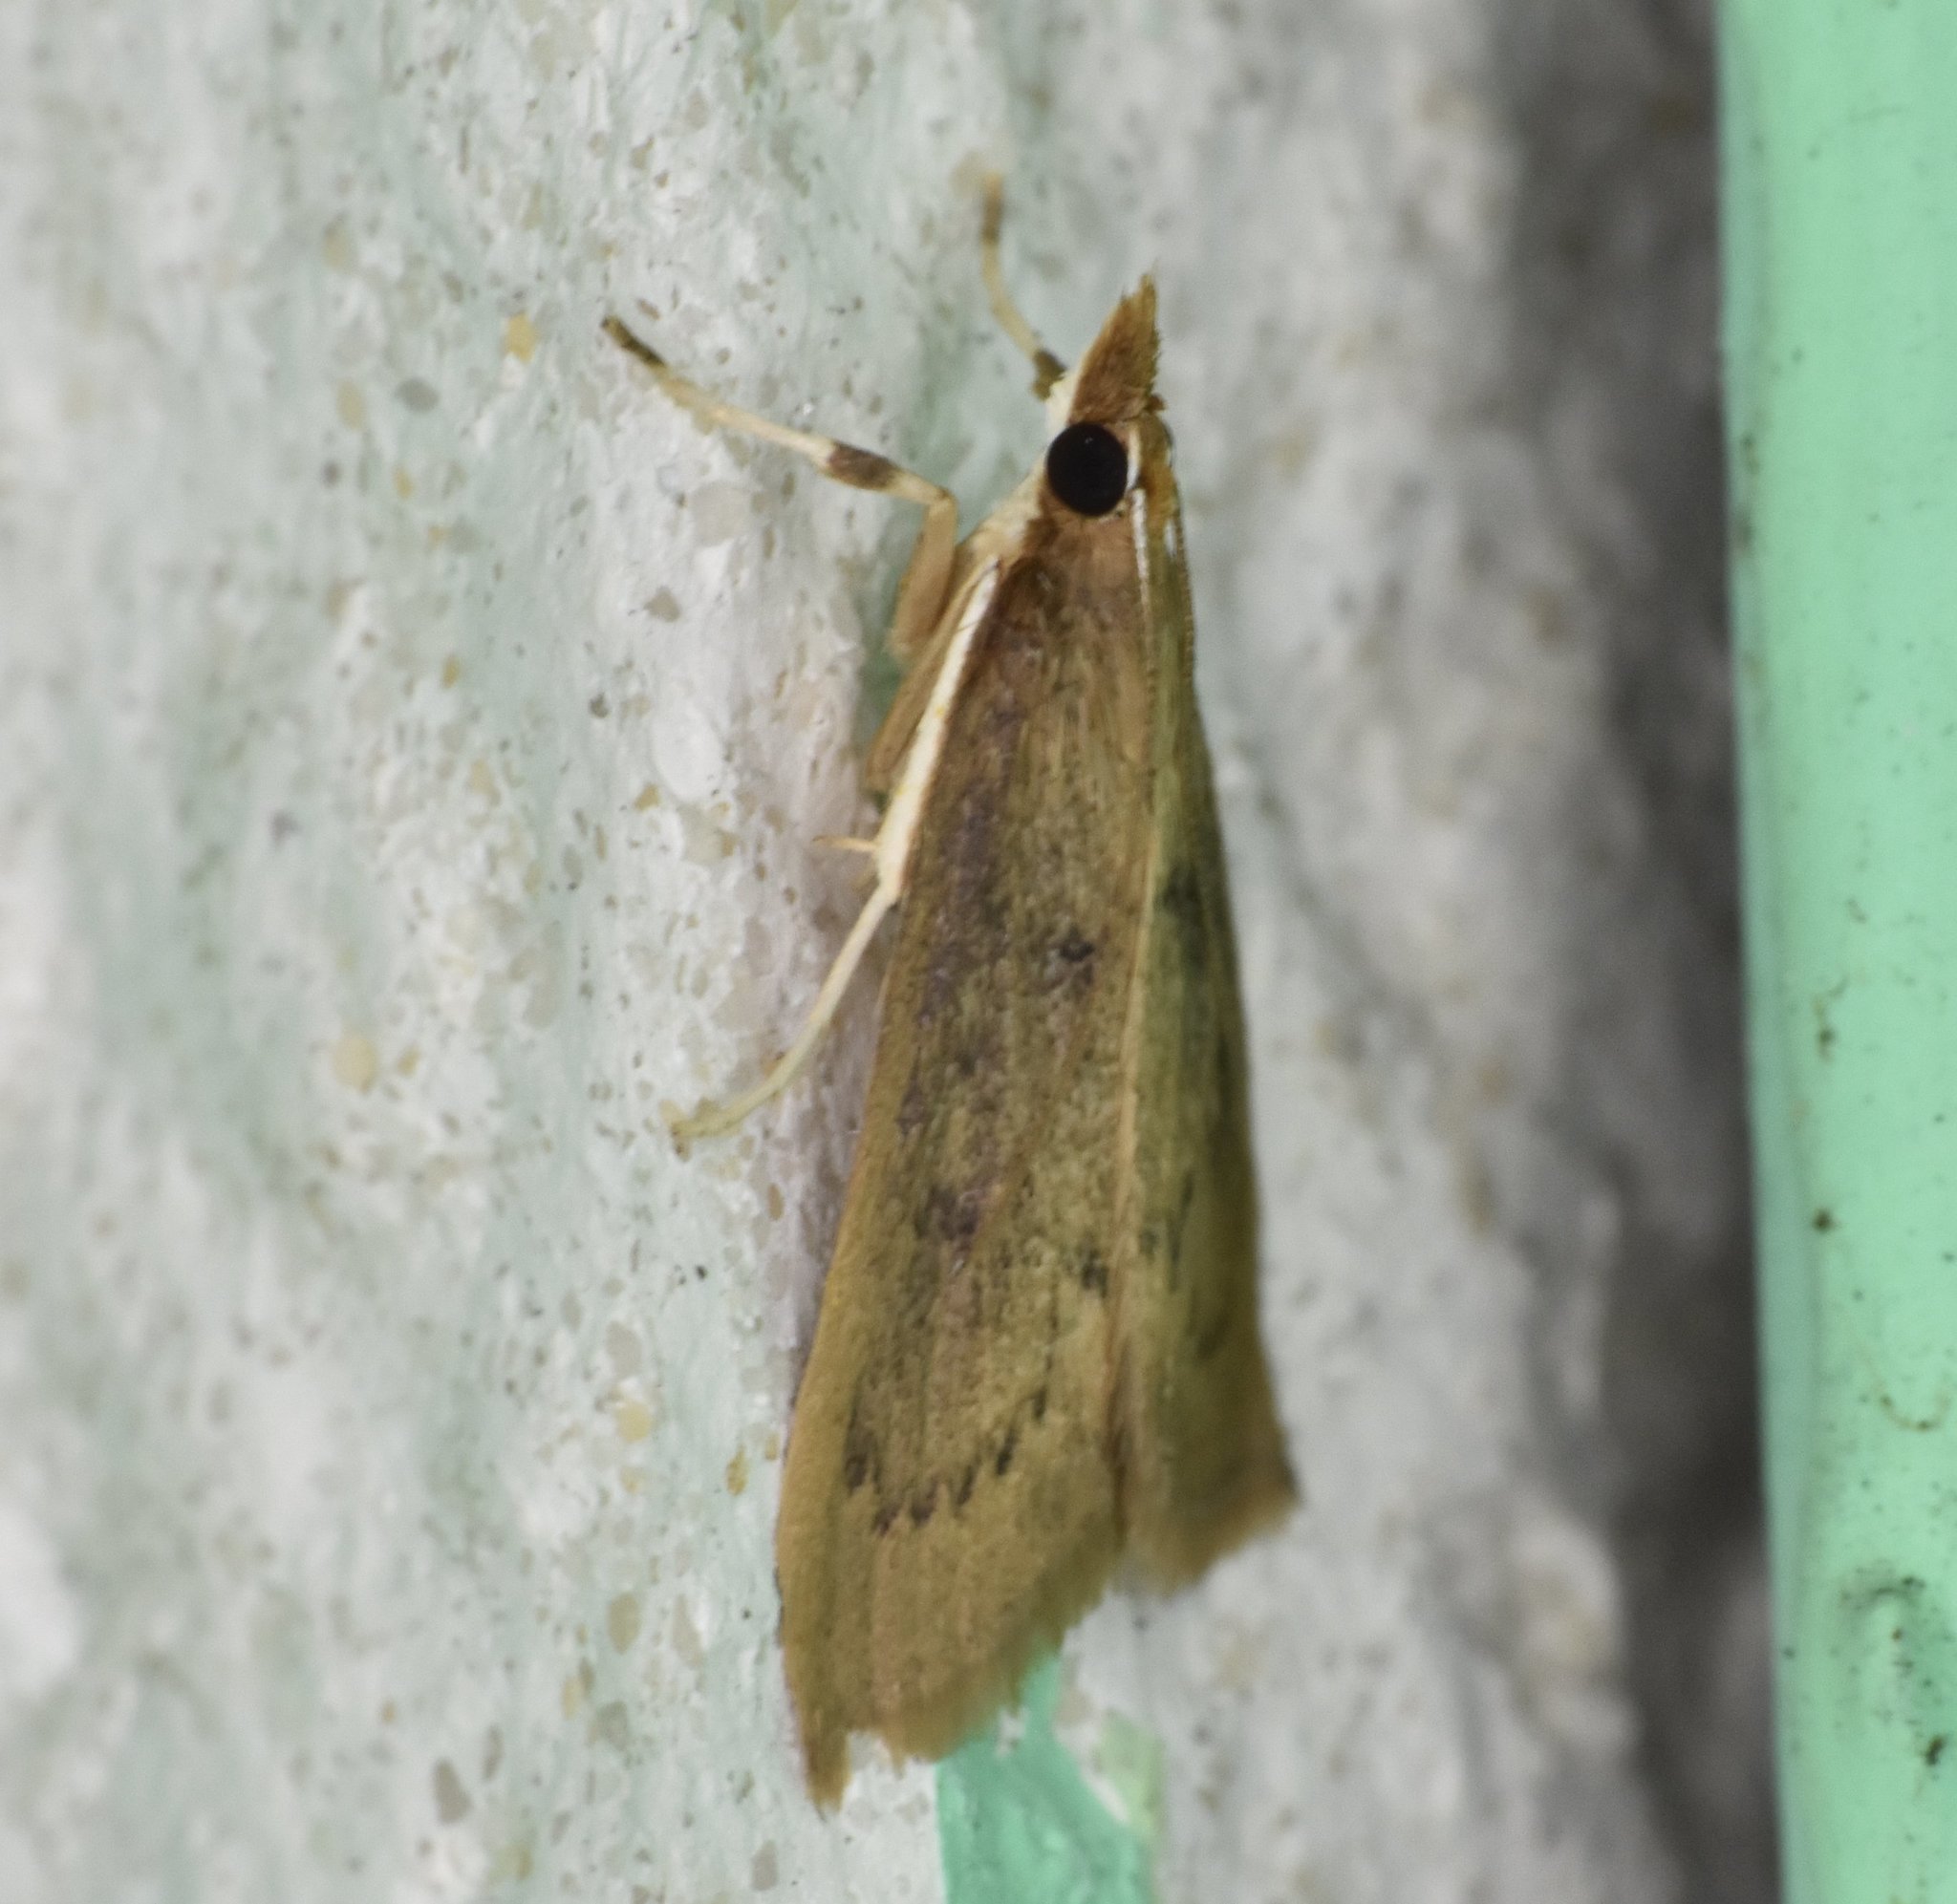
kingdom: Animalia
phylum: Arthropoda
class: Insecta
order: Lepidoptera
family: Crambidae
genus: Oenobotys
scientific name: Oenobotys vinotinctalis
